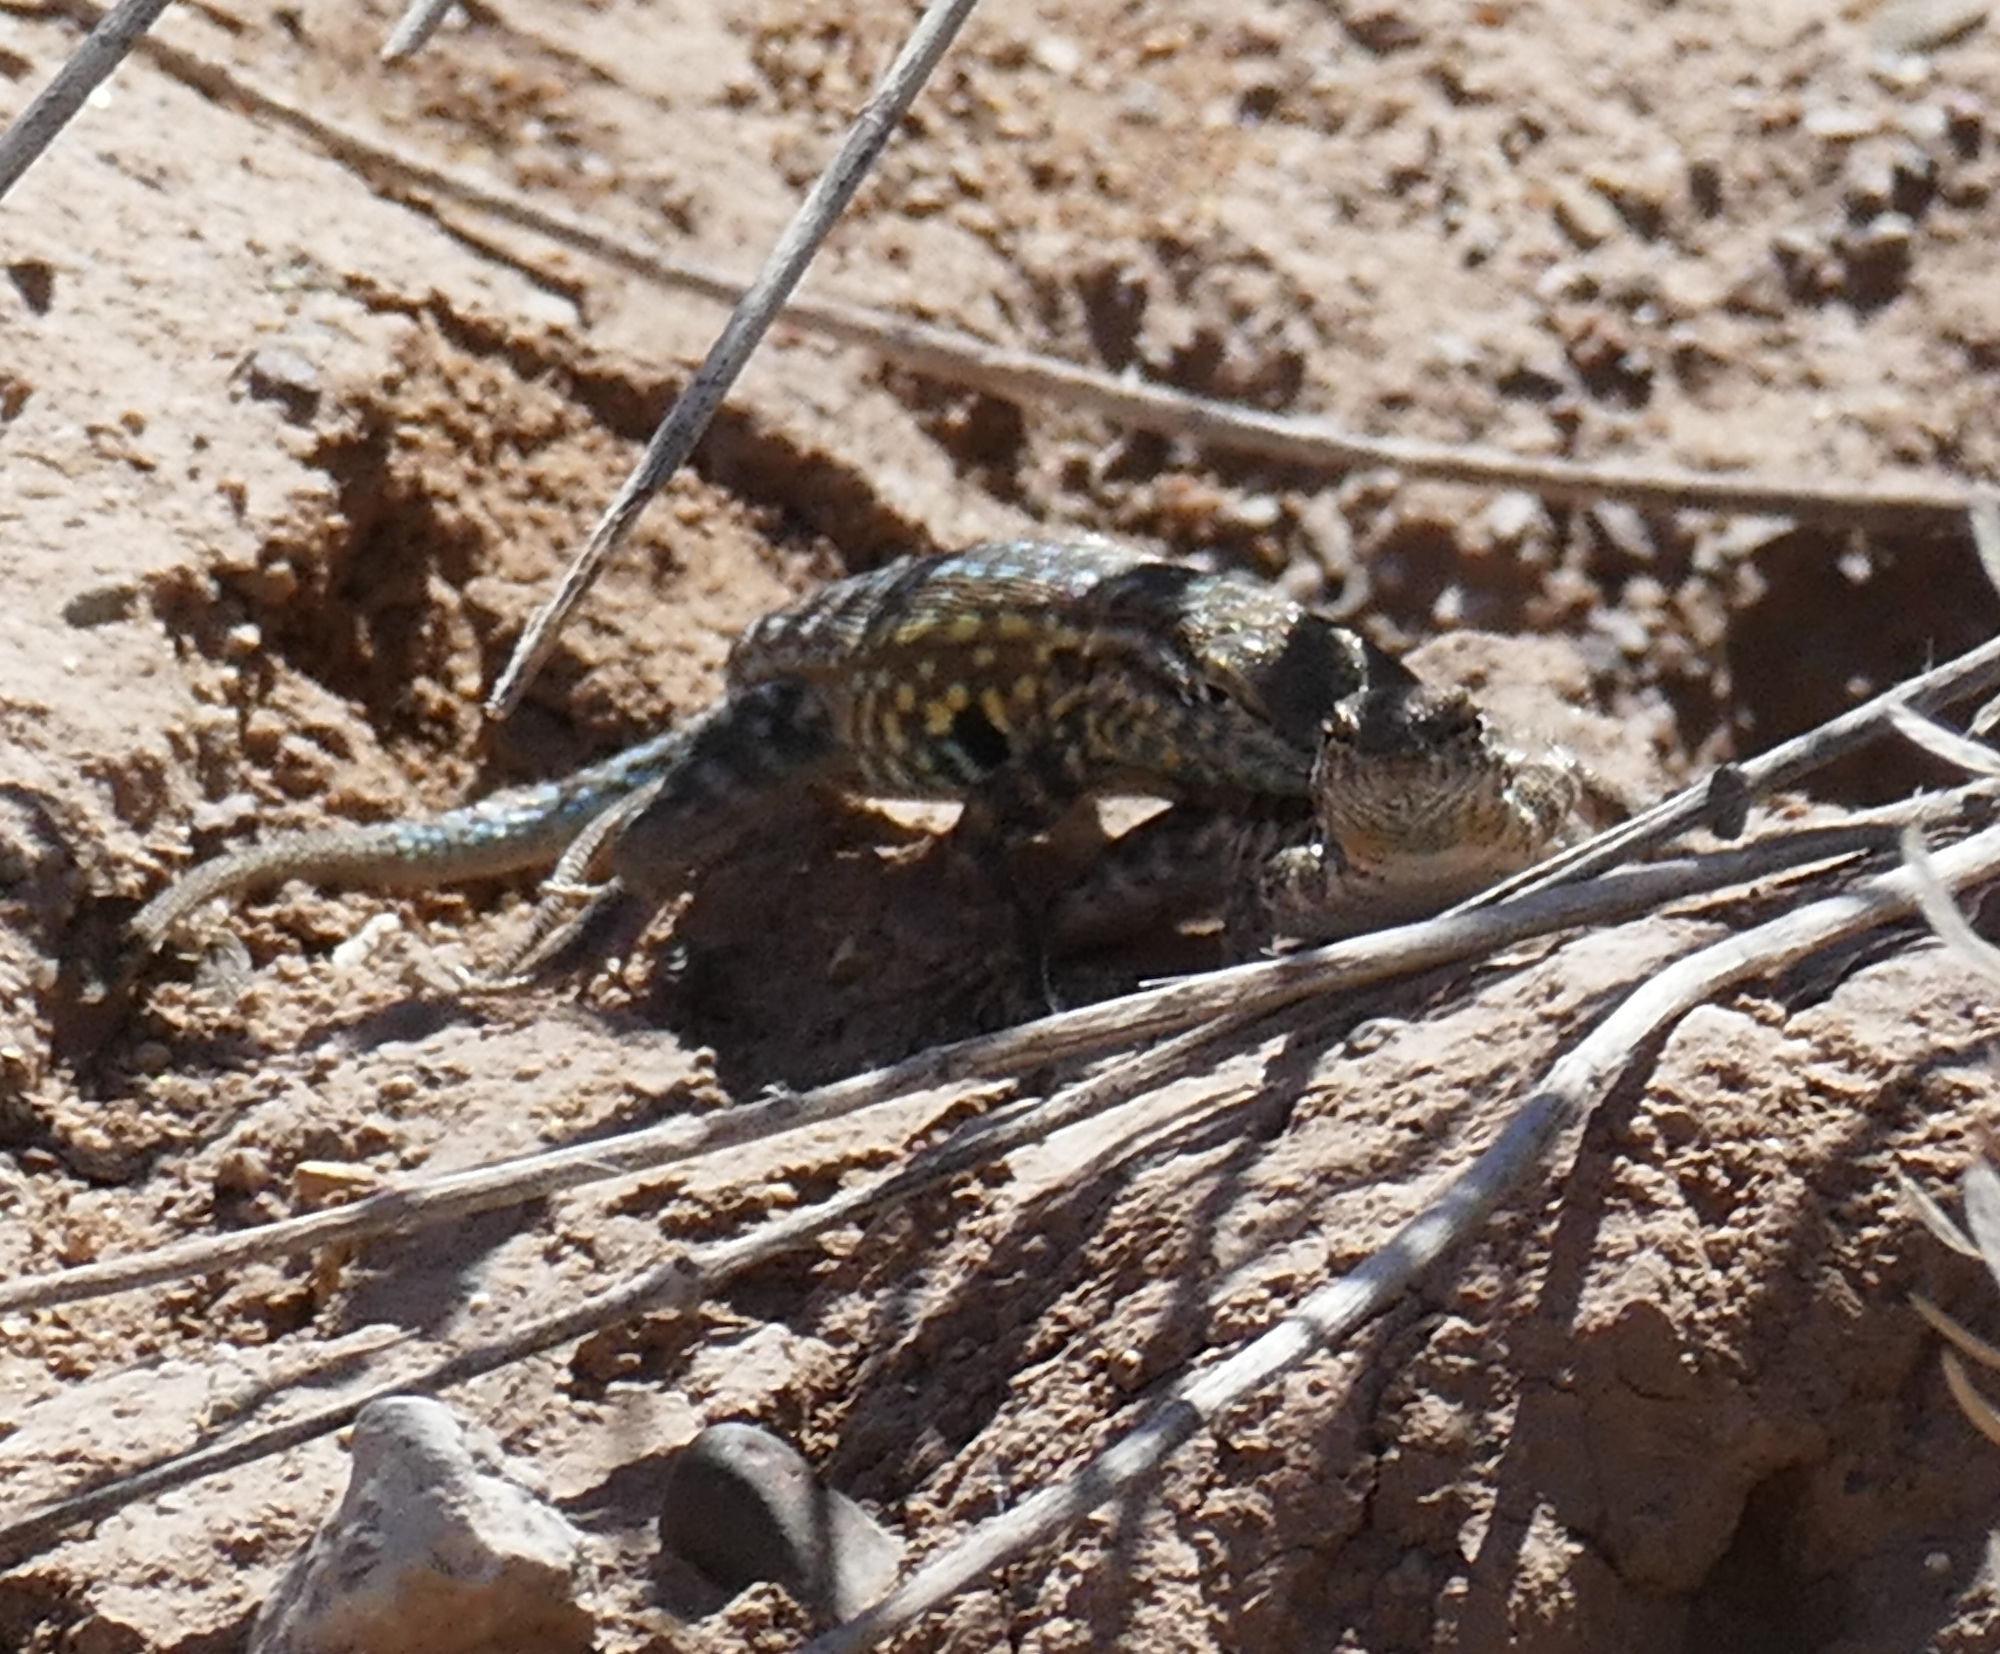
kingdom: Animalia
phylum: Chordata
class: Squamata
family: Phrynosomatidae
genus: Uta
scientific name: Uta stansburiana
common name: Side-blotched lizard
